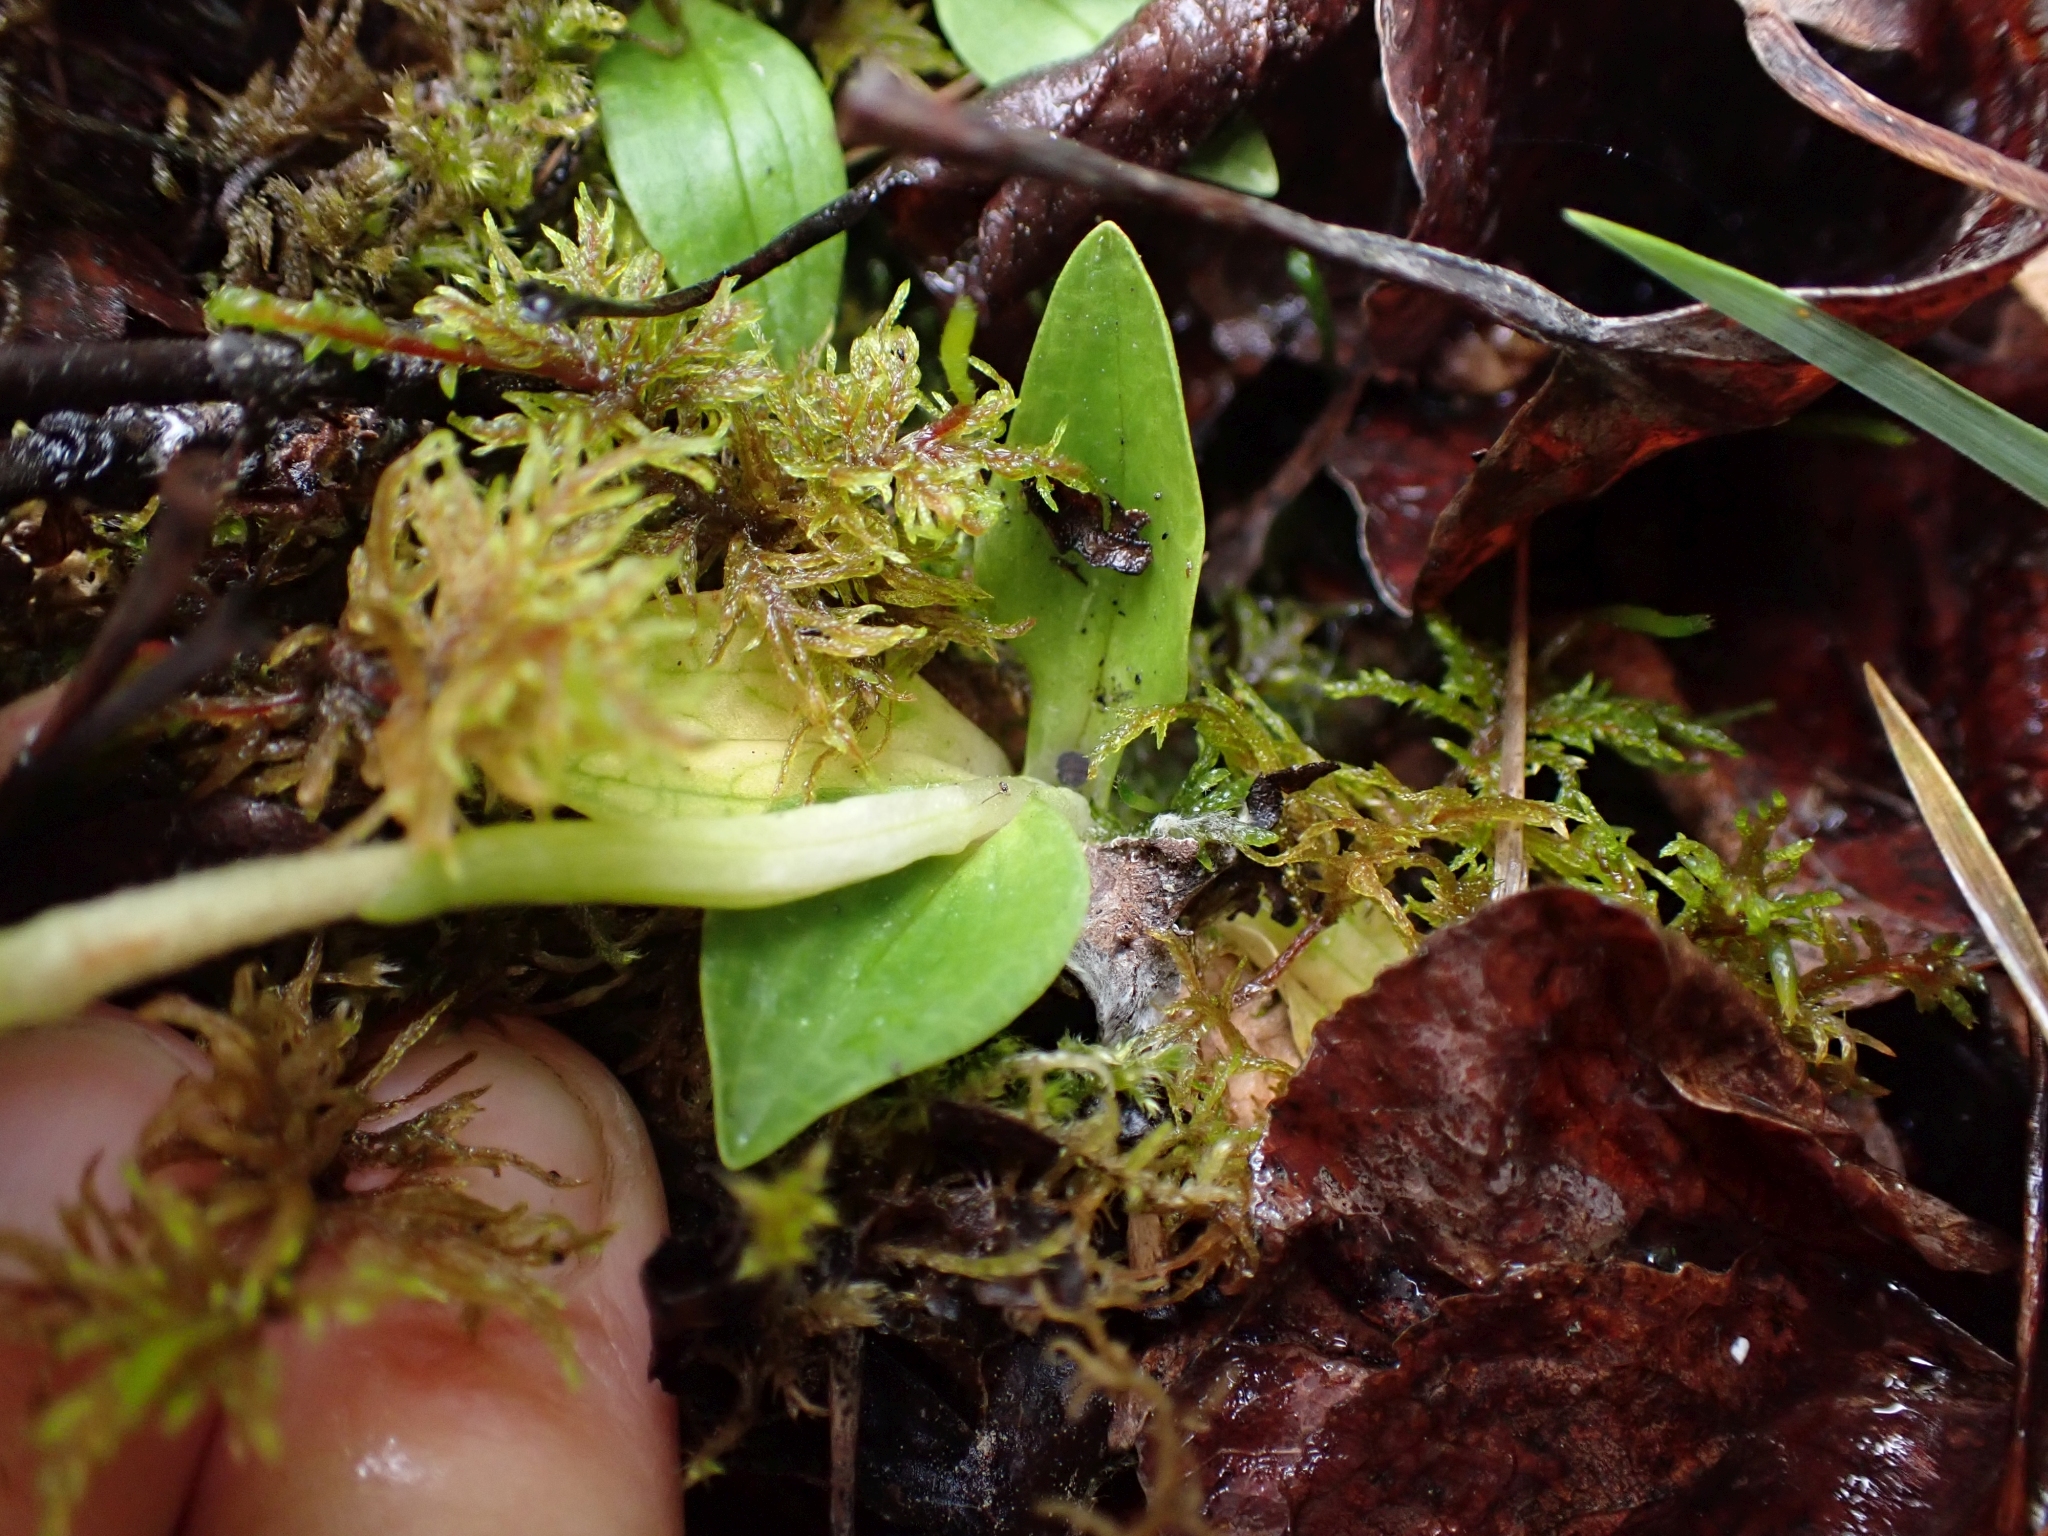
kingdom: Plantae
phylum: Tracheophyta
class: Liliopsida
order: Asparagales
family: Orchidaceae
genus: Goodyera
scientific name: Goodyera repens
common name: Creeping lady's-tresses
